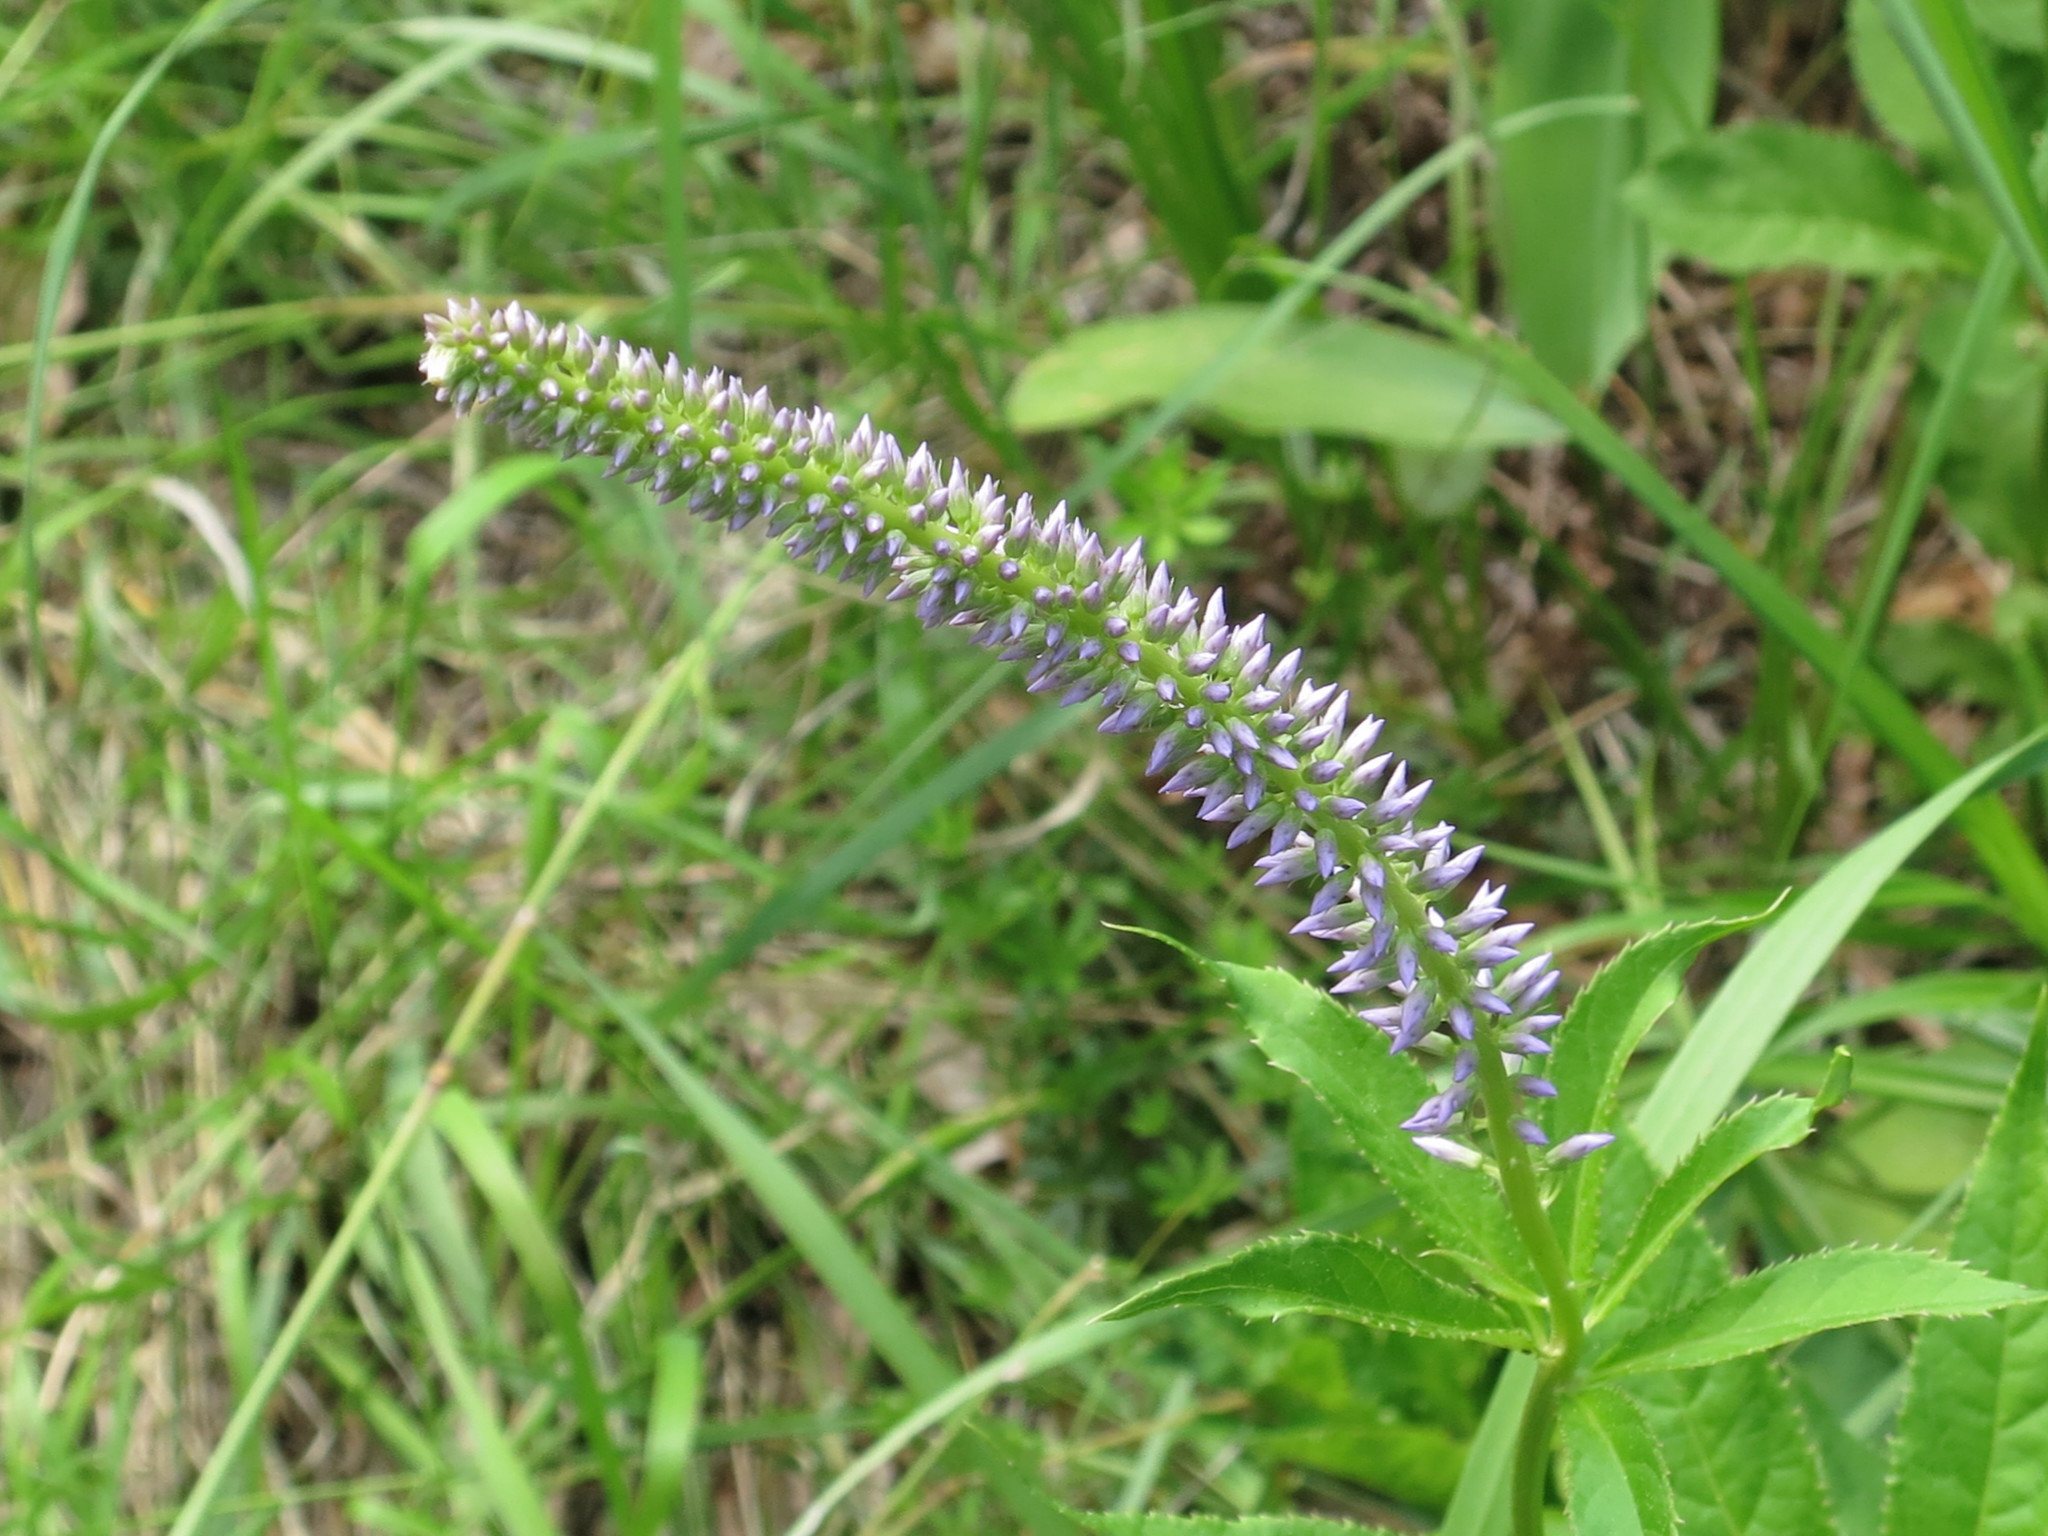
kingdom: Plantae
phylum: Tracheophyta
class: Magnoliopsida
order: Lamiales
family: Plantaginaceae
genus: Veronicastrum
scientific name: Veronicastrum sibiricum
